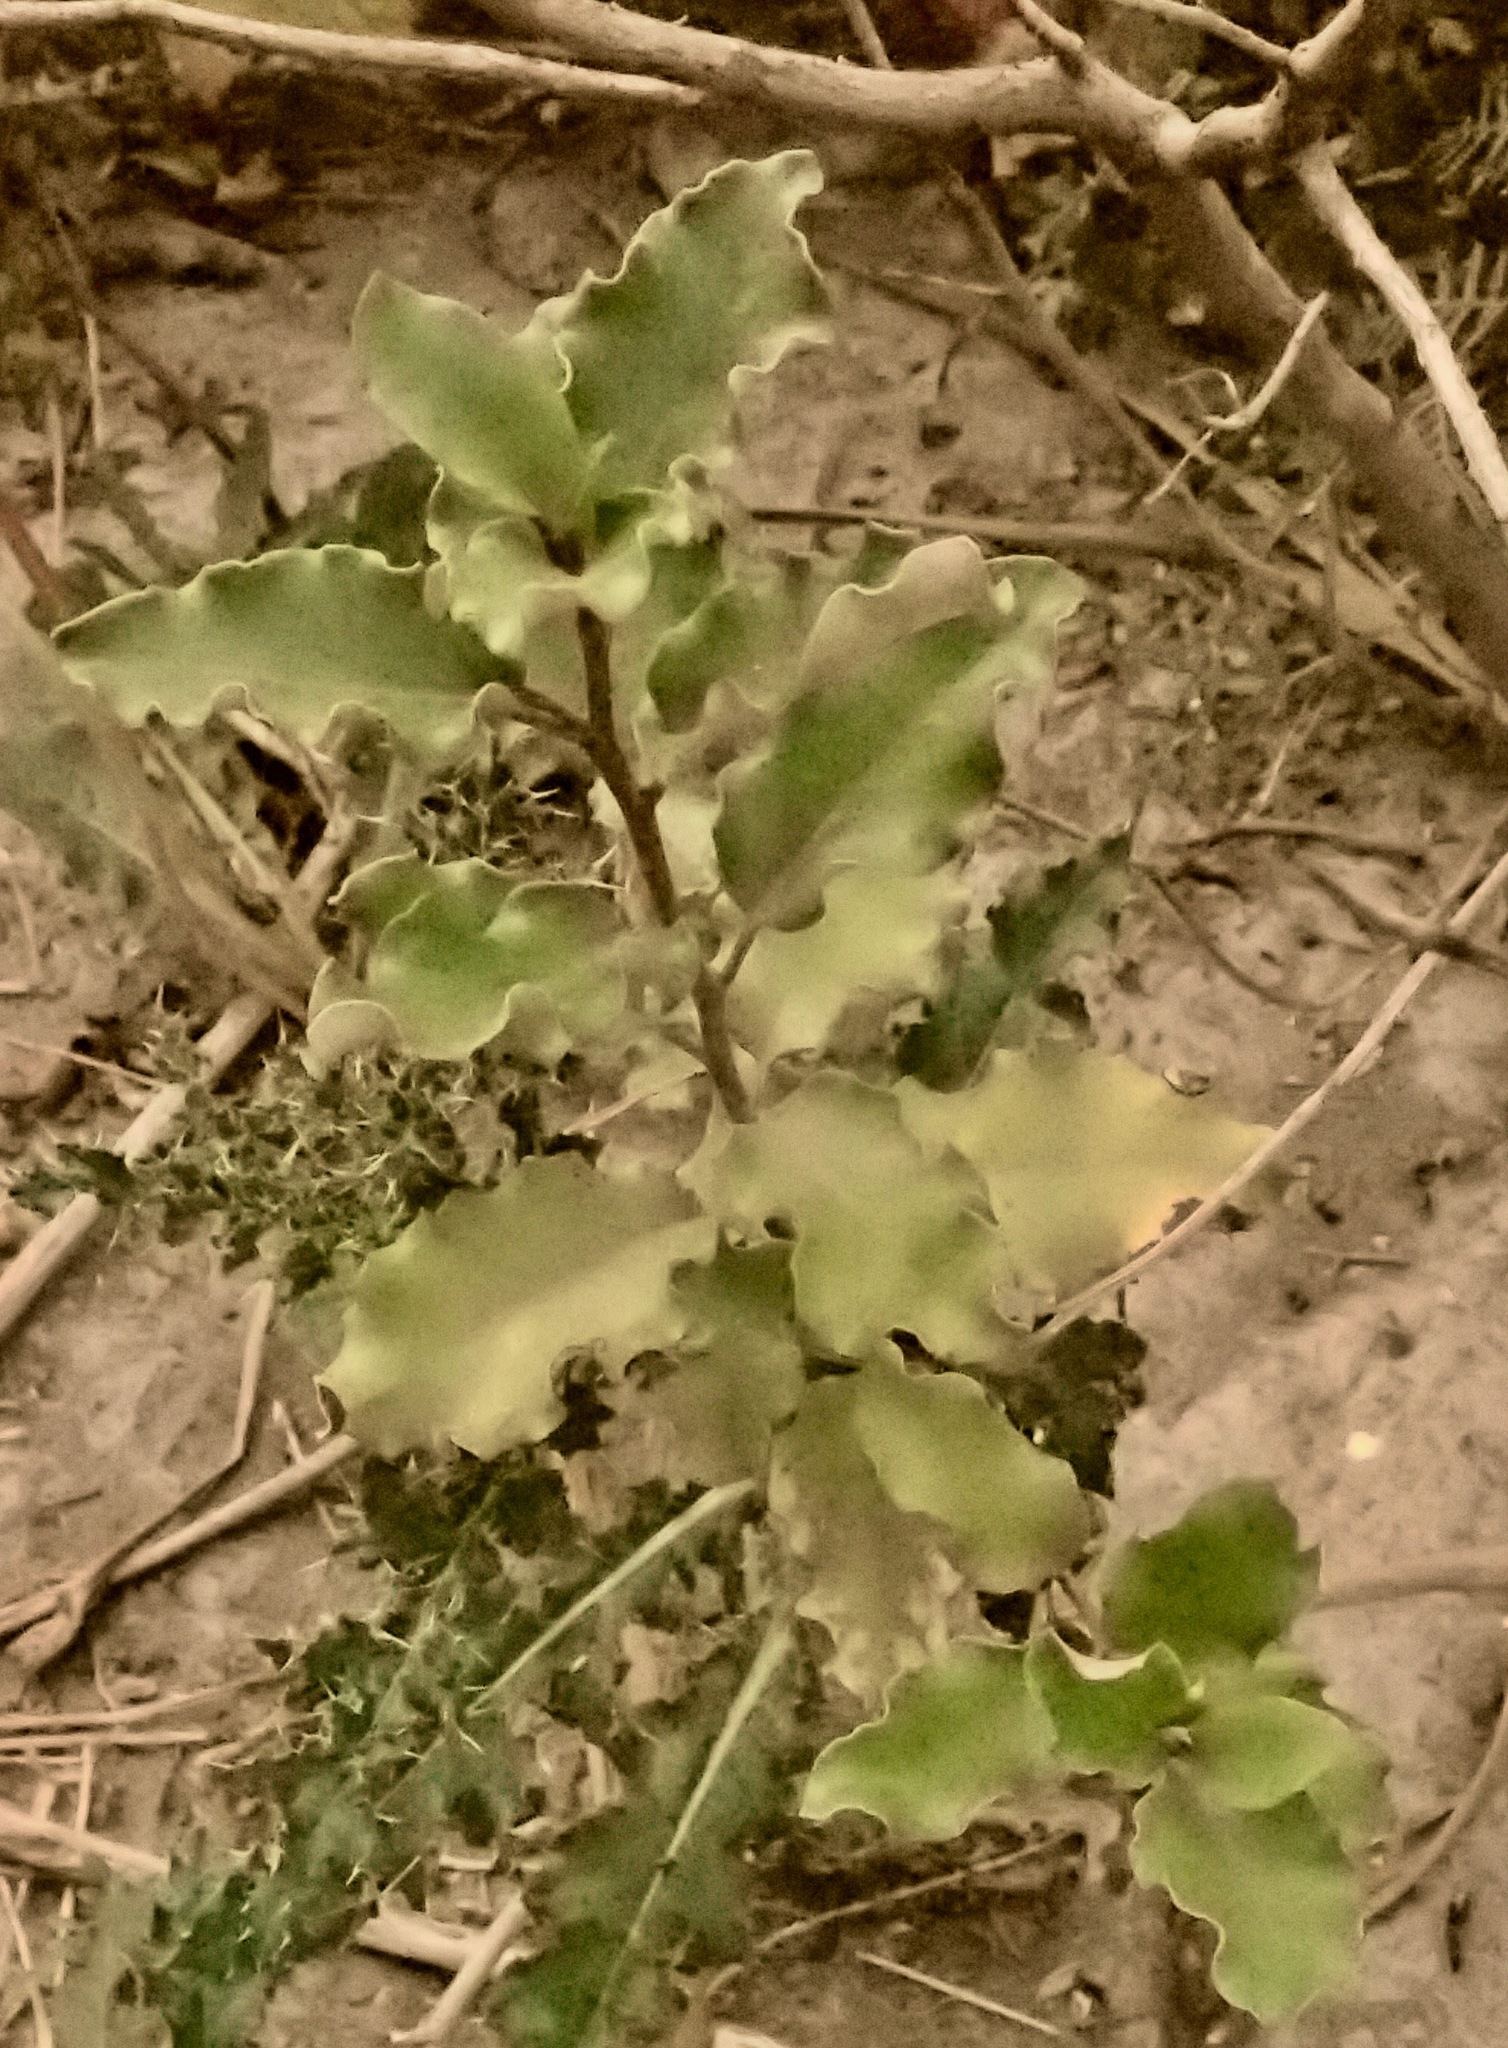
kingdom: Plantae
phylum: Tracheophyta
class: Magnoliopsida
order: Asterales
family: Asteraceae
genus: Olearia
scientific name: Olearia paniculata
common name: Akiraho
